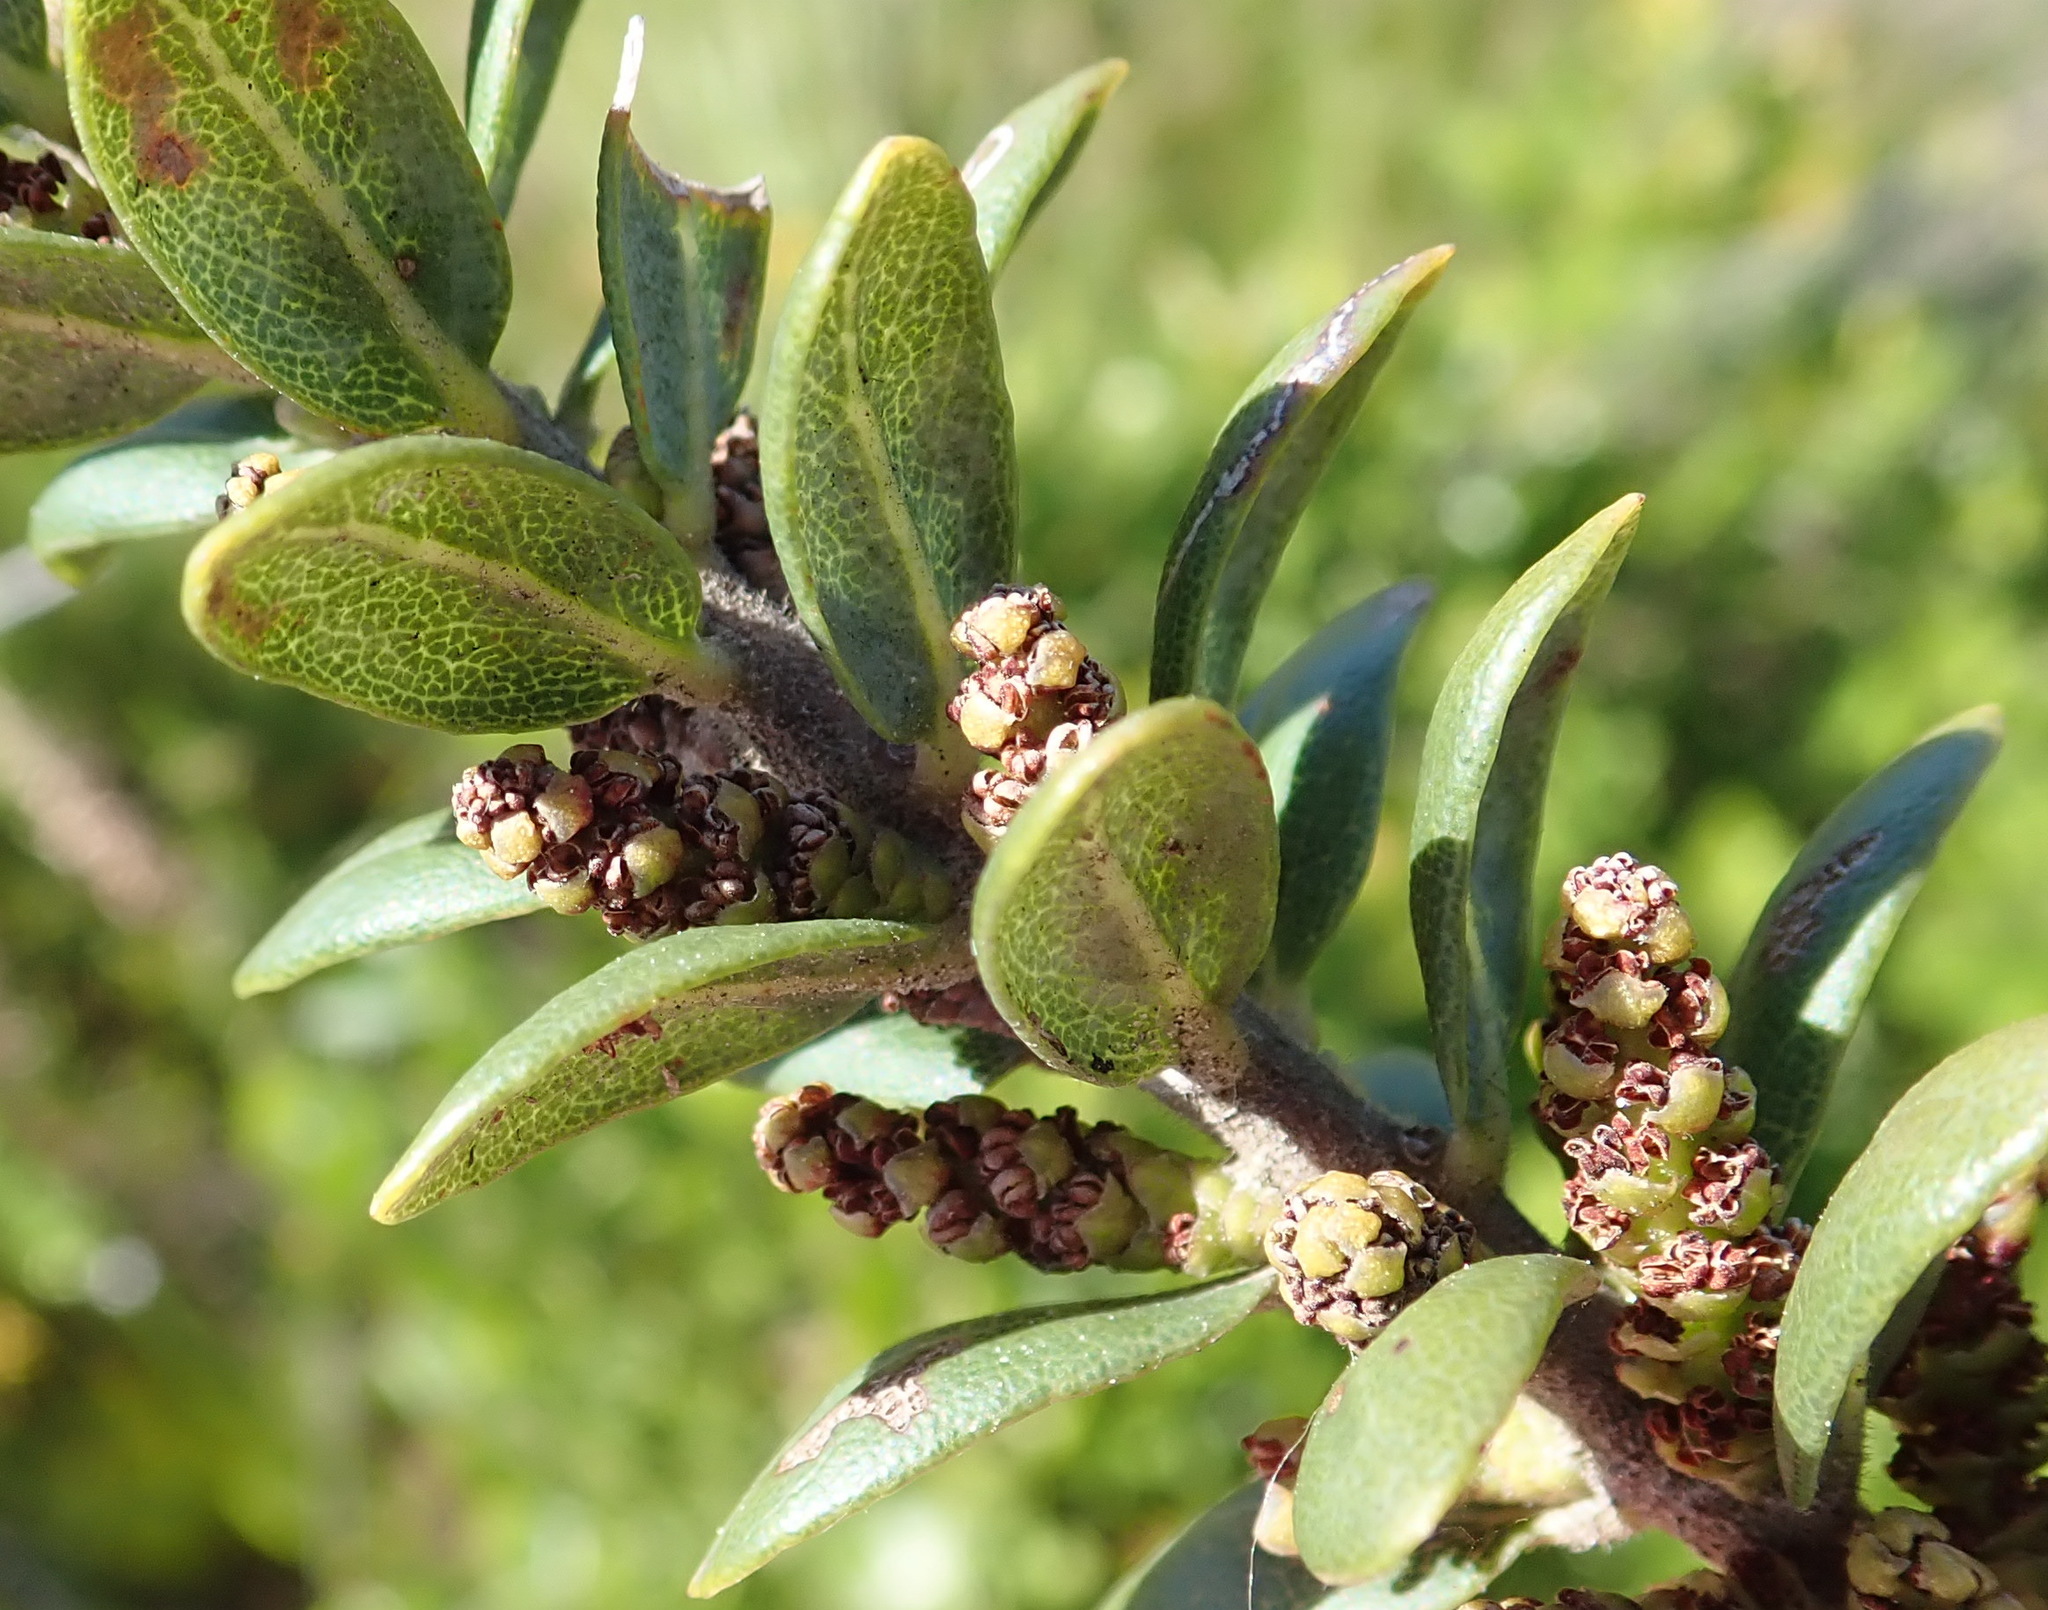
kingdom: Plantae
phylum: Tracheophyta
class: Magnoliopsida
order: Fagales
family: Myricaceae
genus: Morella
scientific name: Morella humilis
